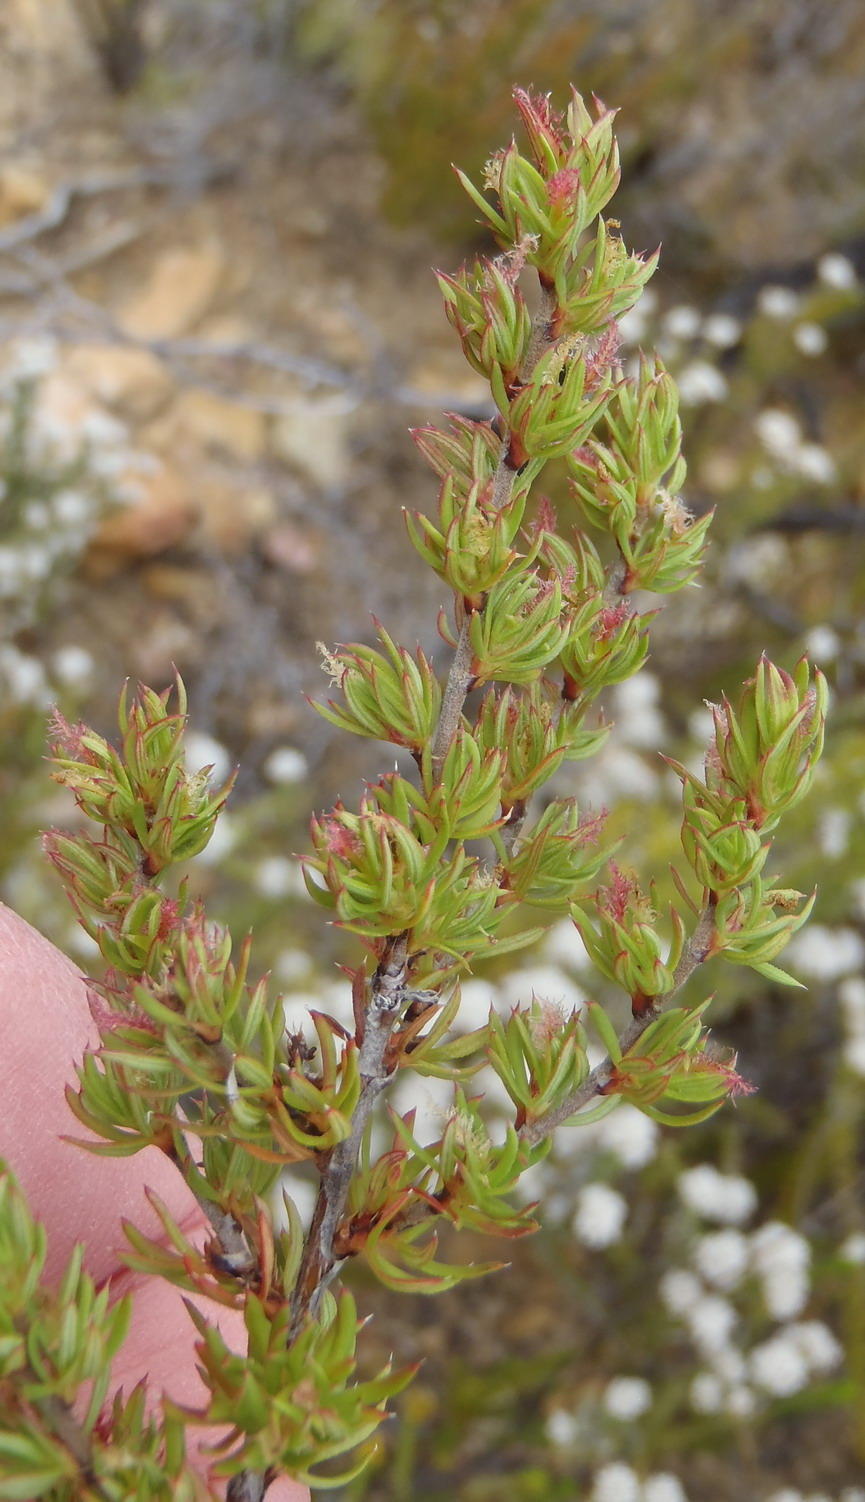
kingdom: Plantae
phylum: Tracheophyta
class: Magnoliopsida
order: Rosales
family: Rosaceae
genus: Cliffortia
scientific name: Cliffortia arcuata
